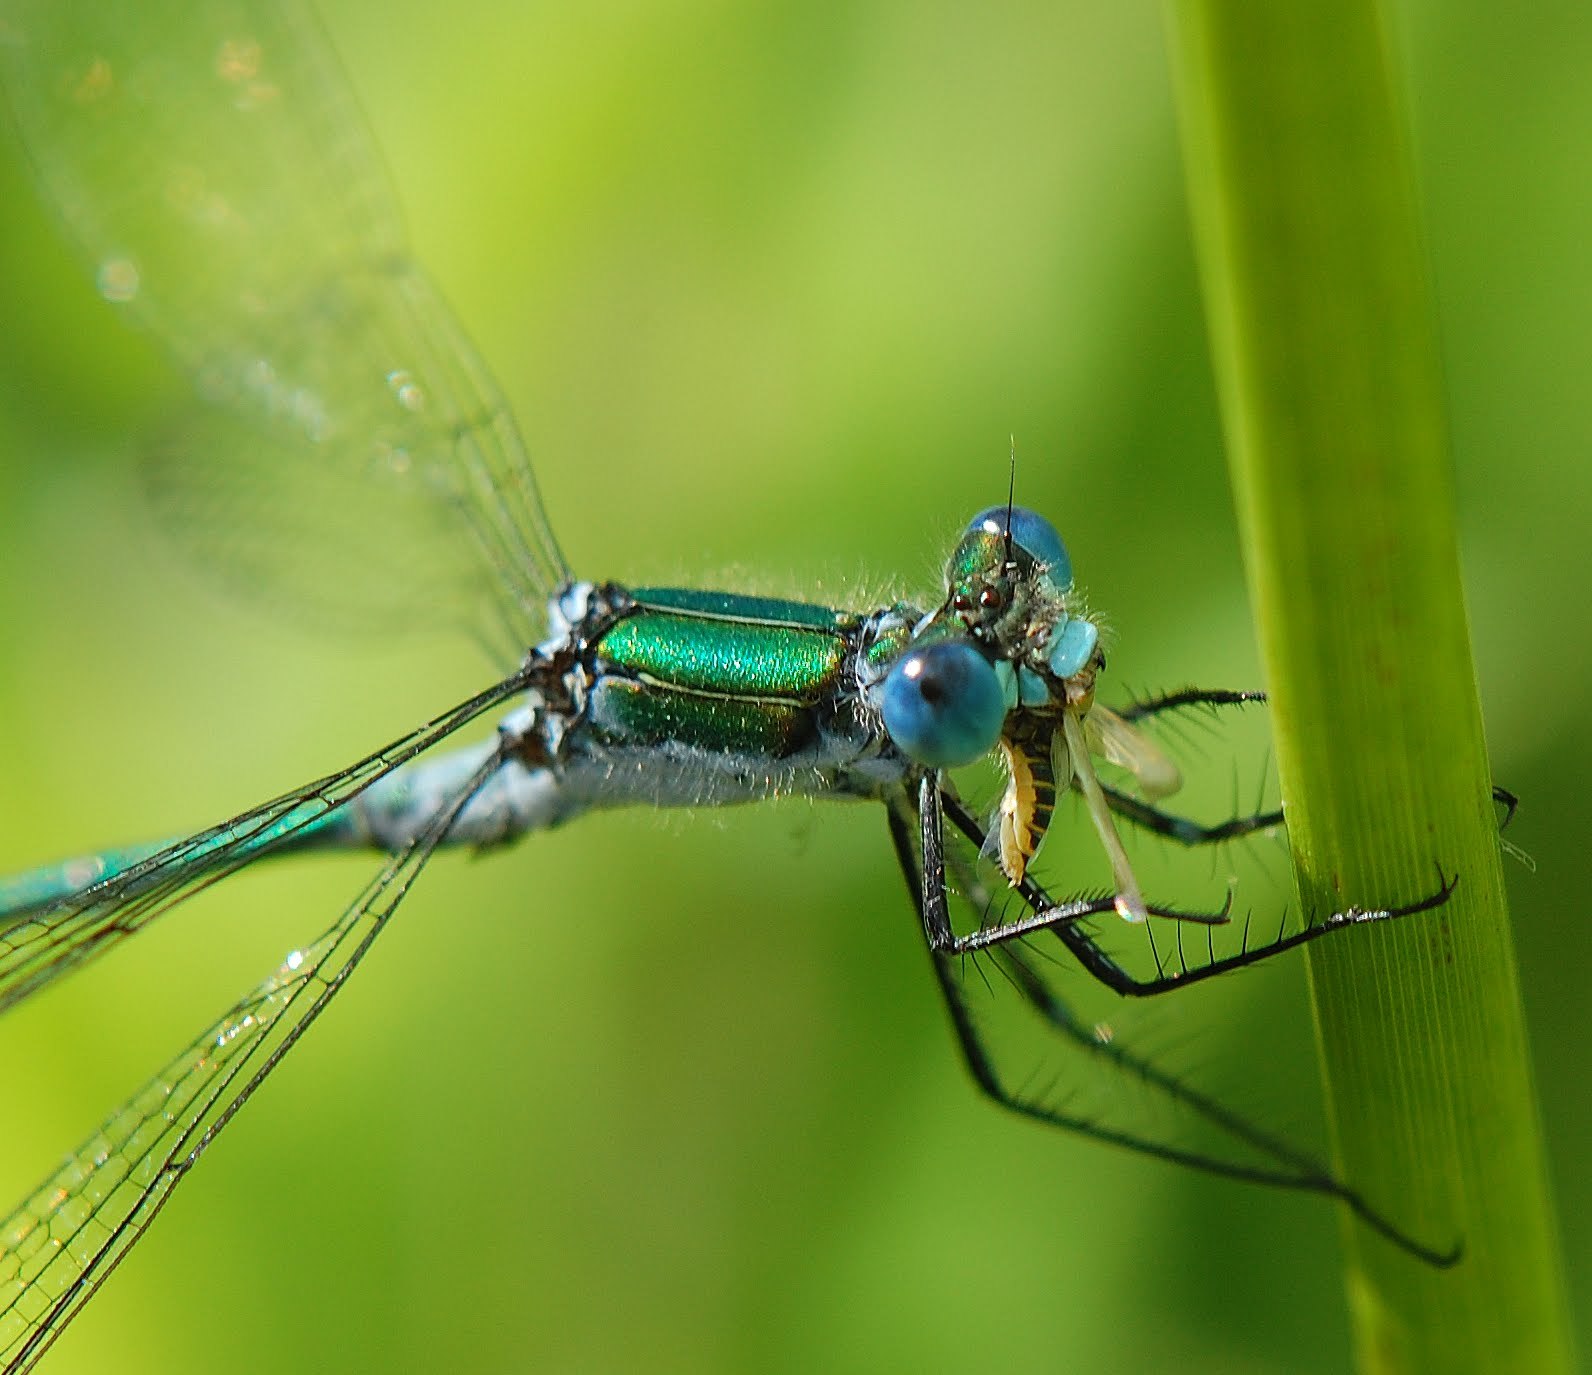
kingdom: Animalia
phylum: Arthropoda
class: Insecta
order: Odonata
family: Lestidae
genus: Lestes
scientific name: Lestes sponsa
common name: Common spreadwing
